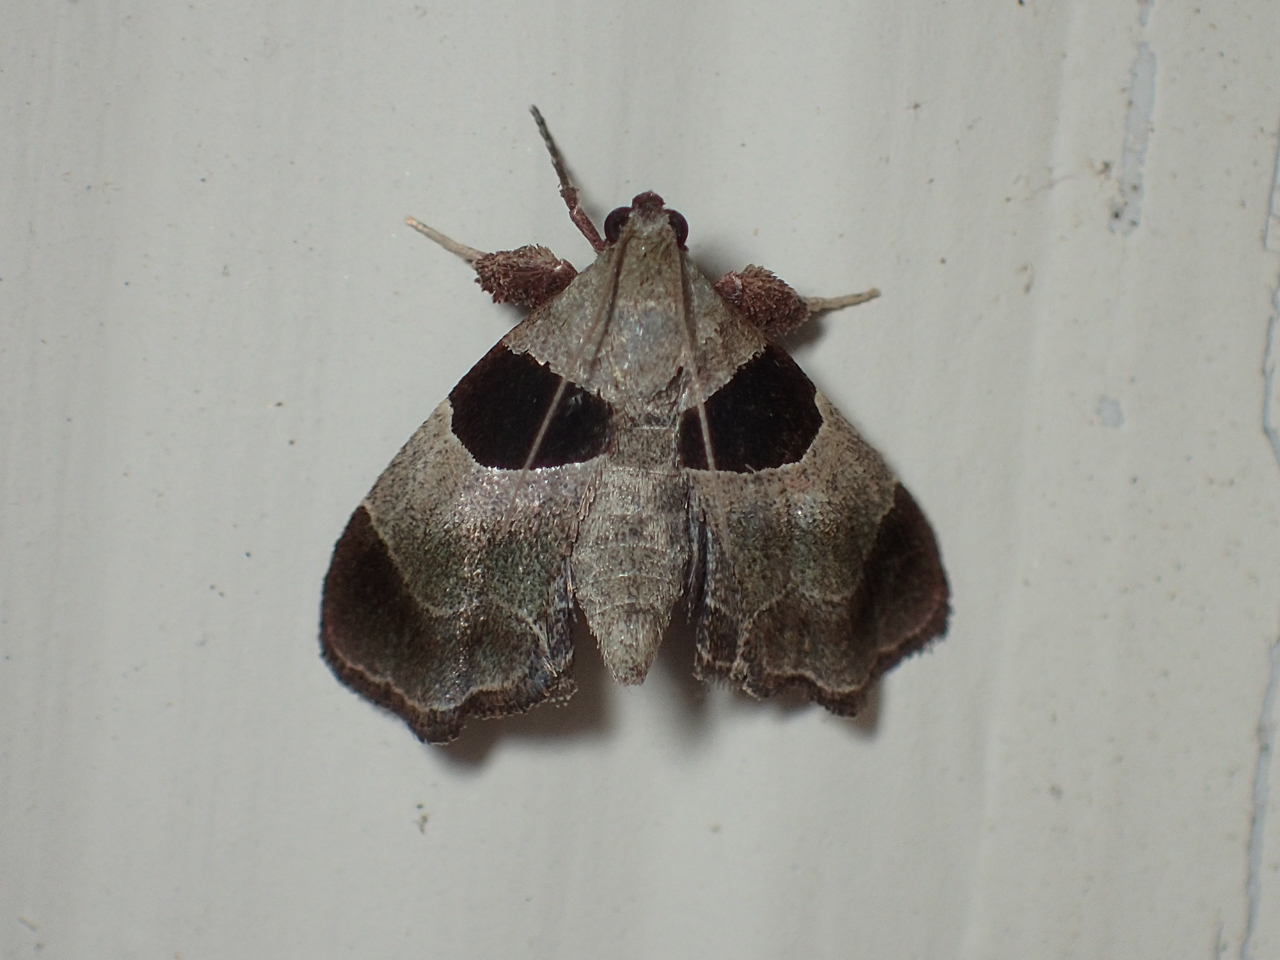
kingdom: Animalia
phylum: Arthropoda
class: Insecta
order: Lepidoptera
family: Pyralidae
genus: Tosale
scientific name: Tosale oviplagalis
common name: Dimorphic tosale moth
